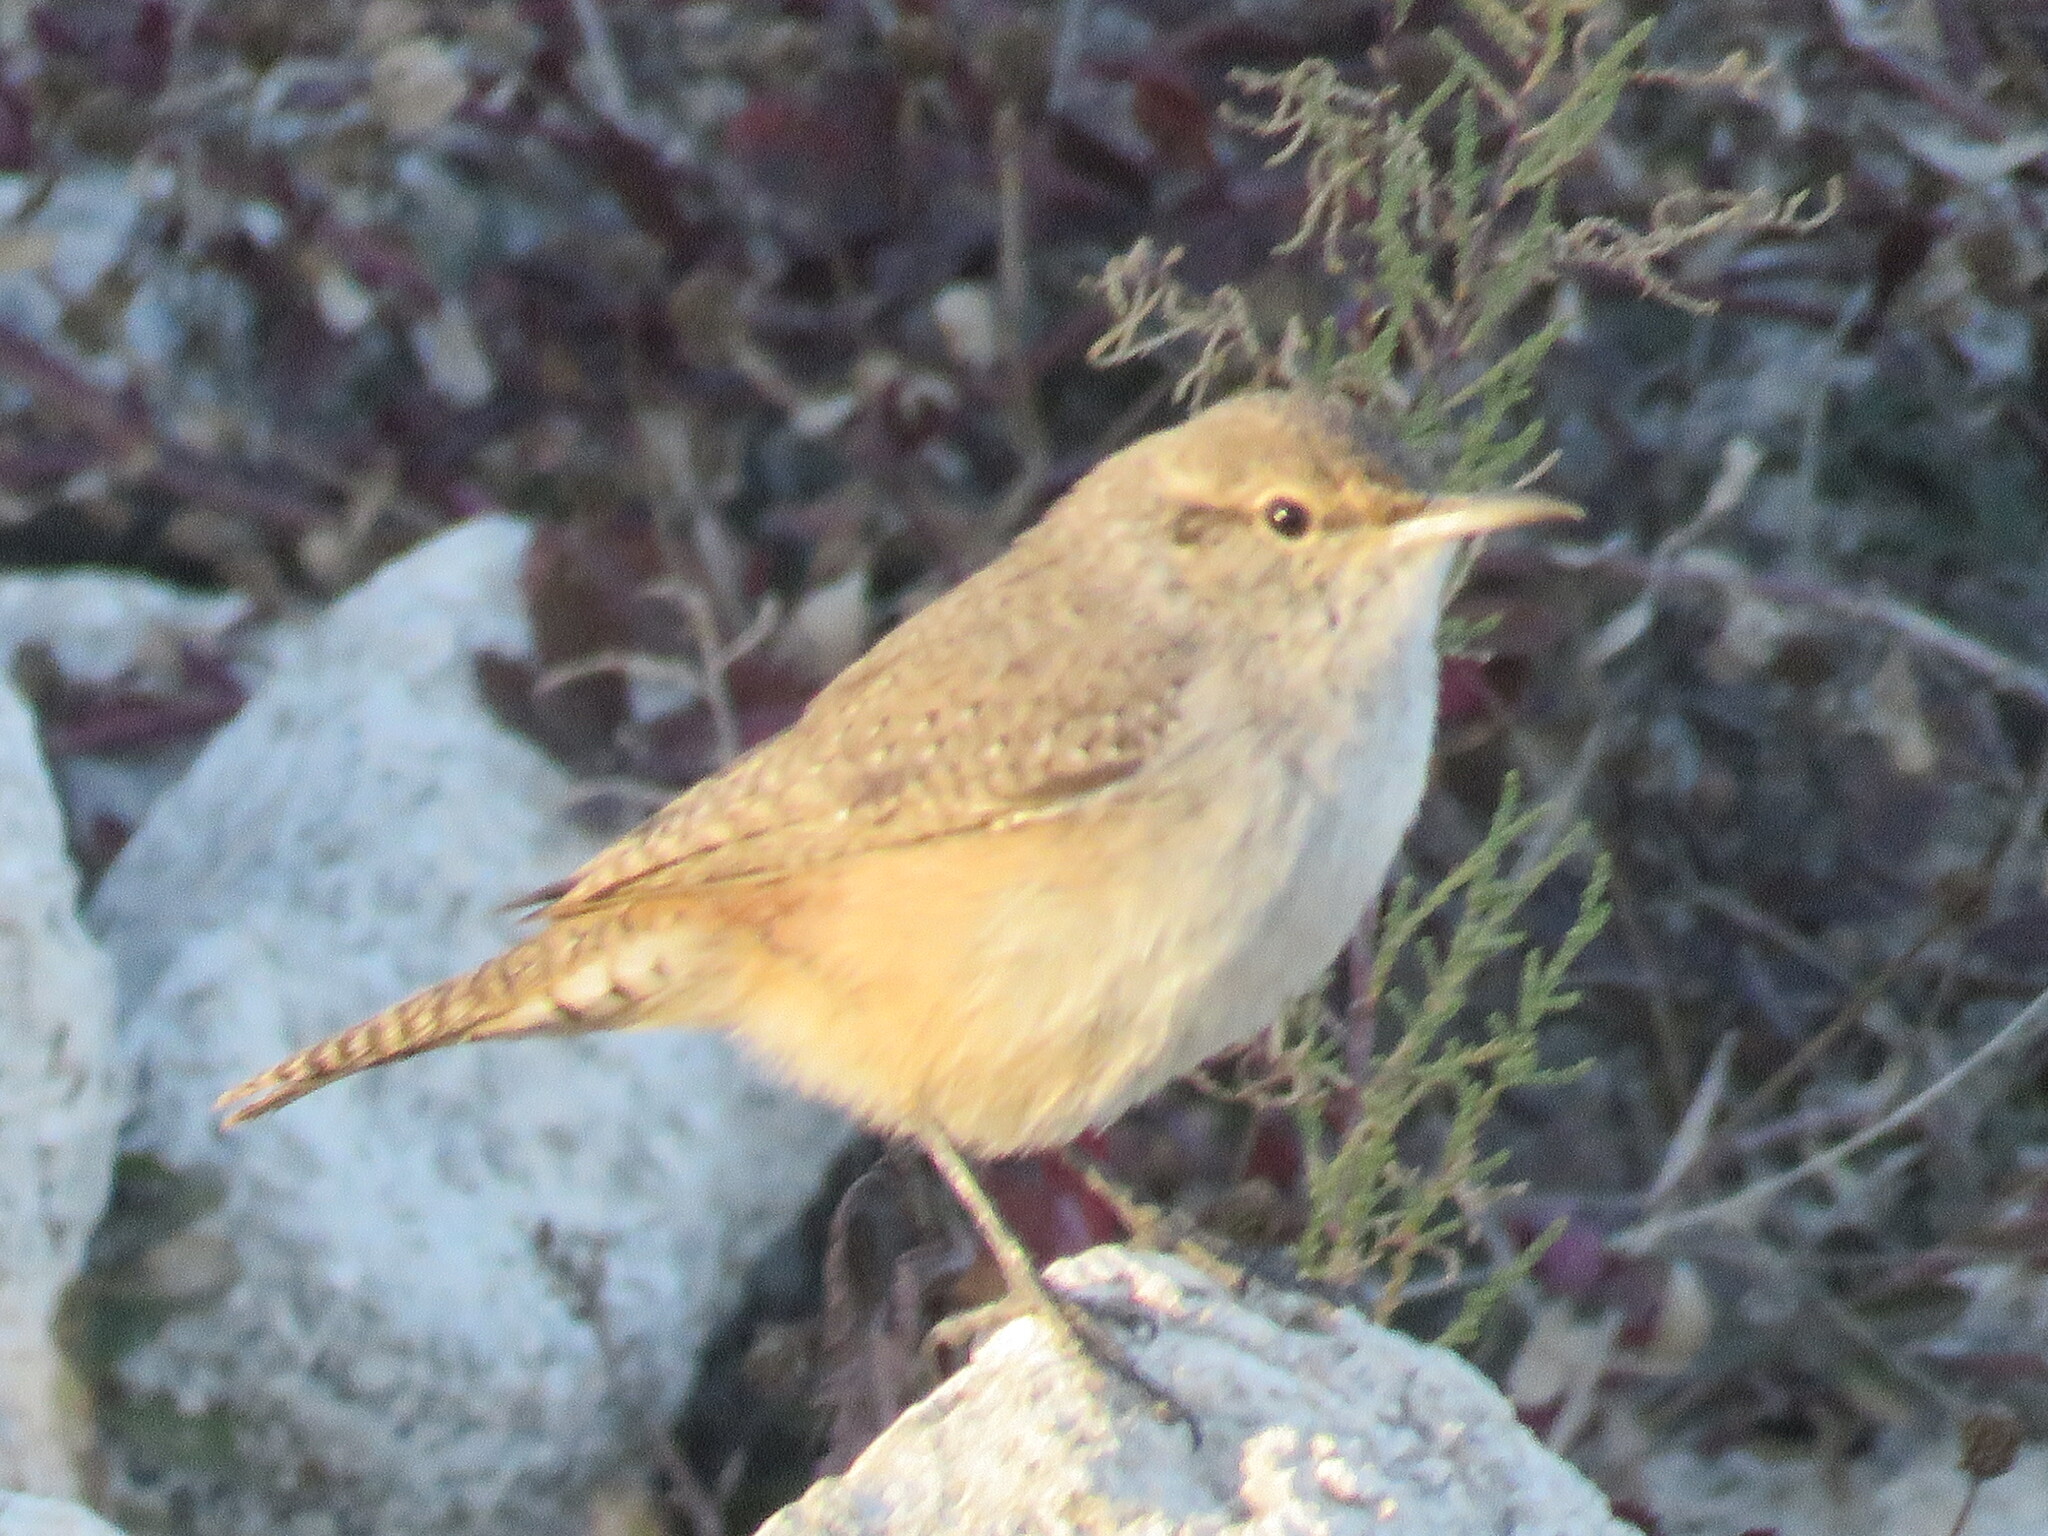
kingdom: Animalia
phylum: Chordata
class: Aves
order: Passeriformes
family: Troglodytidae
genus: Salpinctes
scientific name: Salpinctes obsoletus
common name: Rock wren
